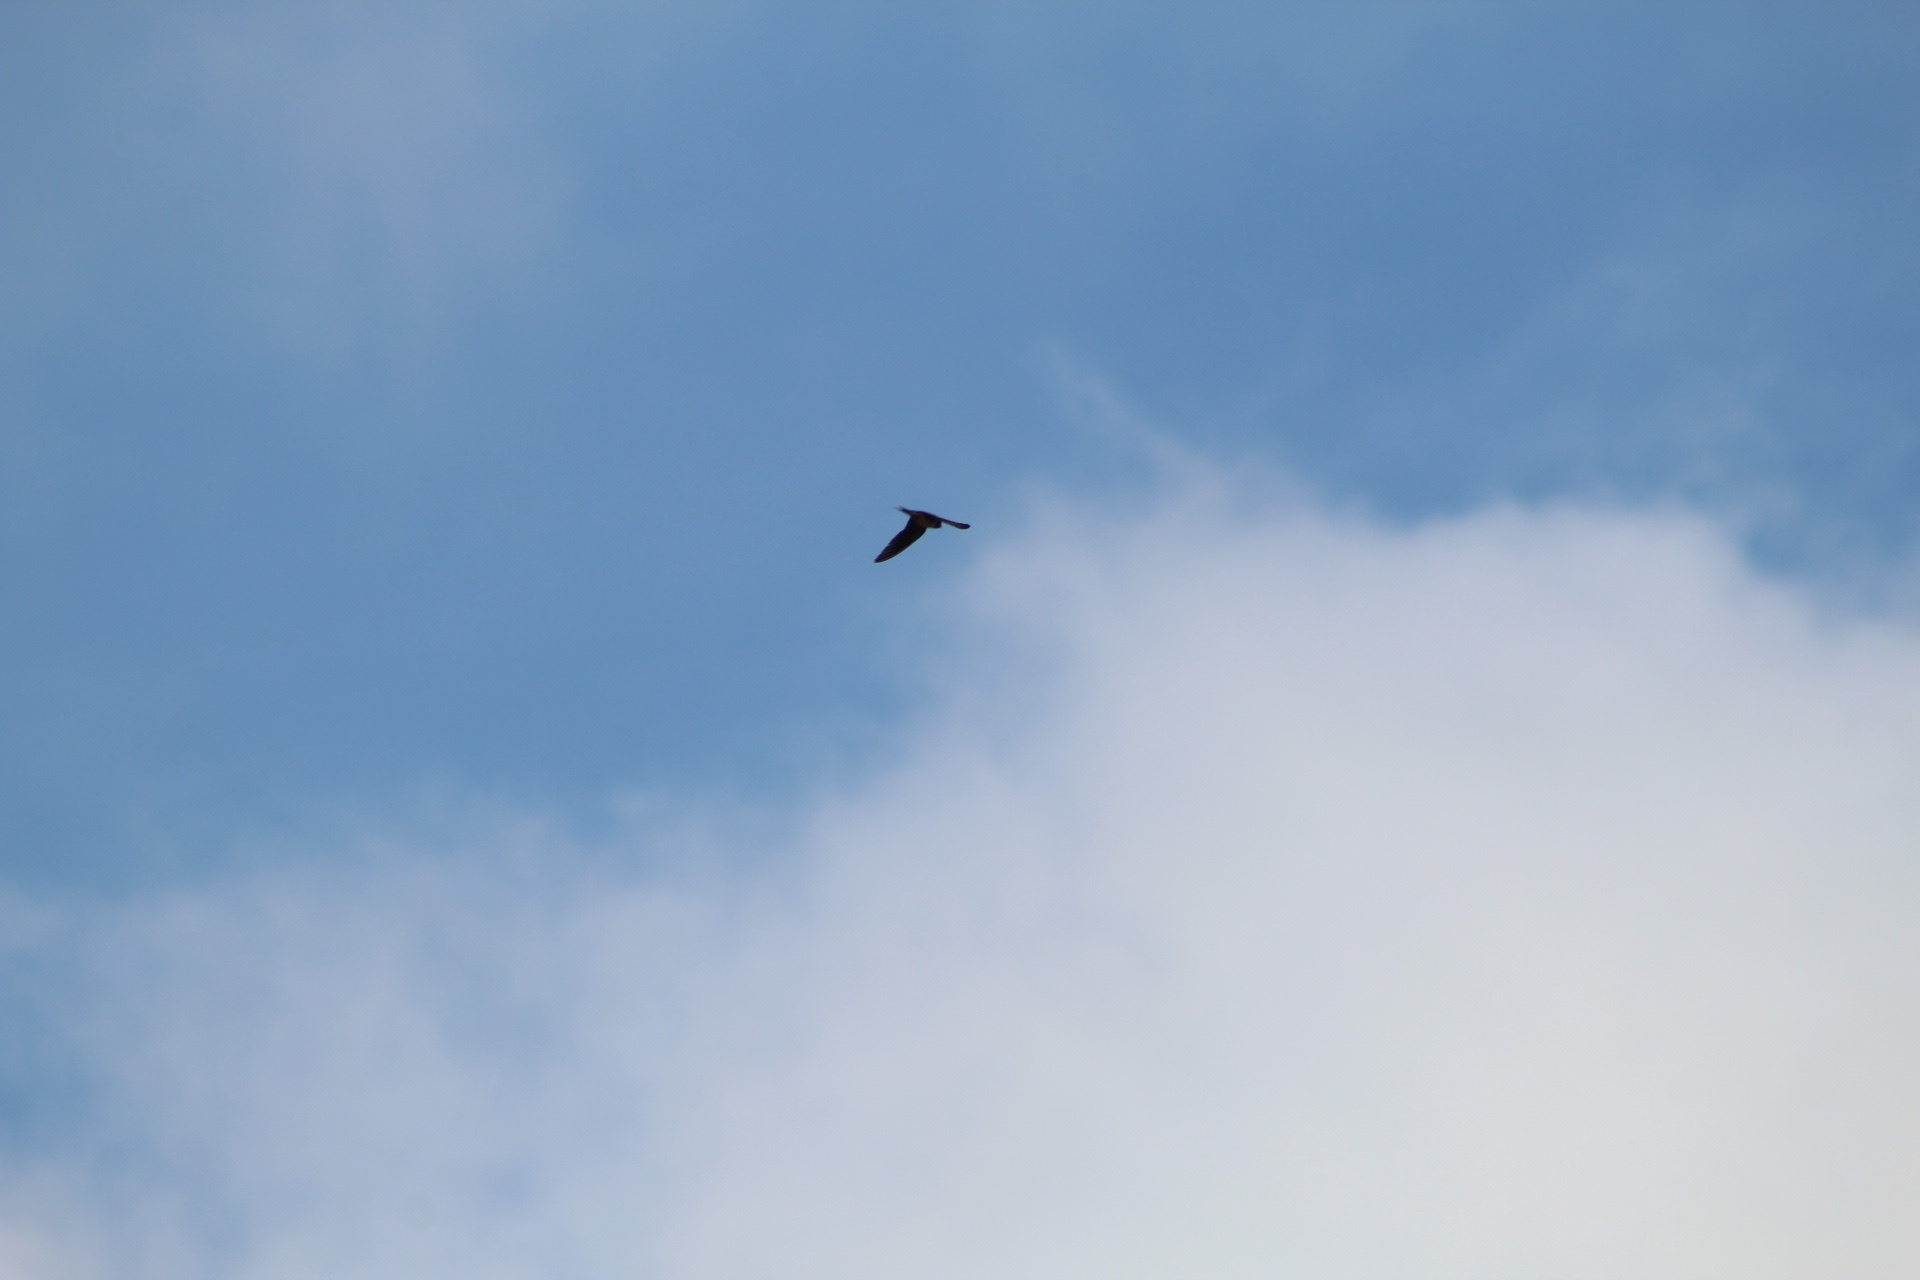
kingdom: Animalia
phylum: Chordata
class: Aves
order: Passeriformes
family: Hirundinidae
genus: Hirundo
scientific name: Hirundo rustica
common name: Barn swallow
